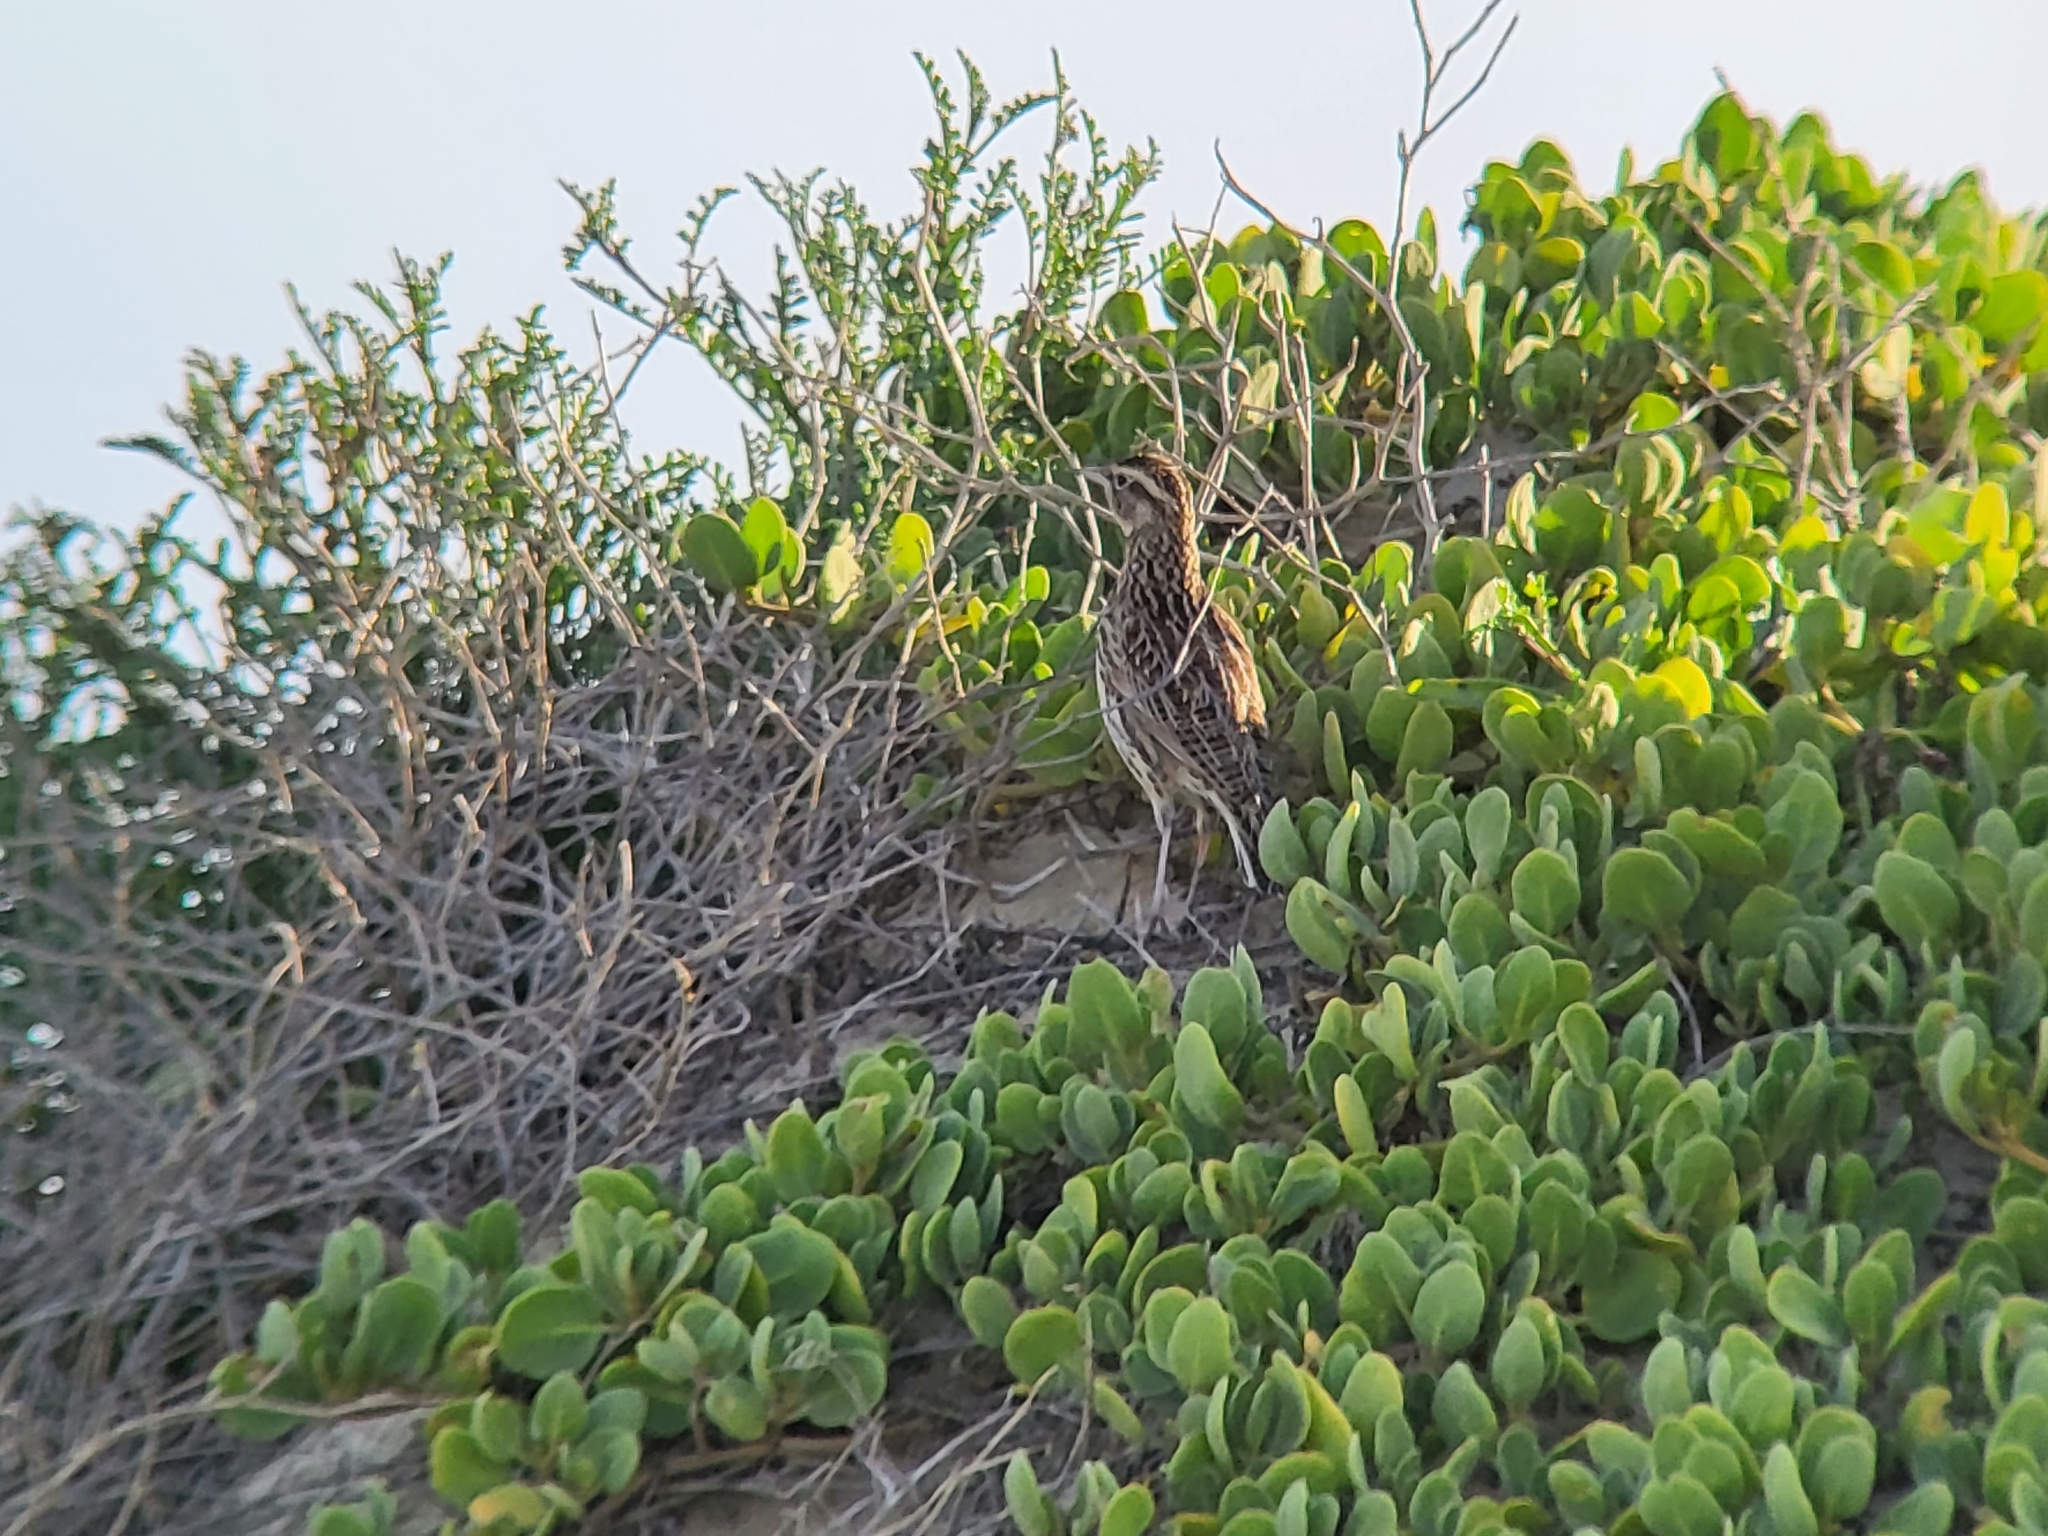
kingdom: Animalia
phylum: Chordata
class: Aves
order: Passeriformes
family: Icteridae
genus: Sturnella
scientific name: Sturnella neglecta
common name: Western meadowlark
